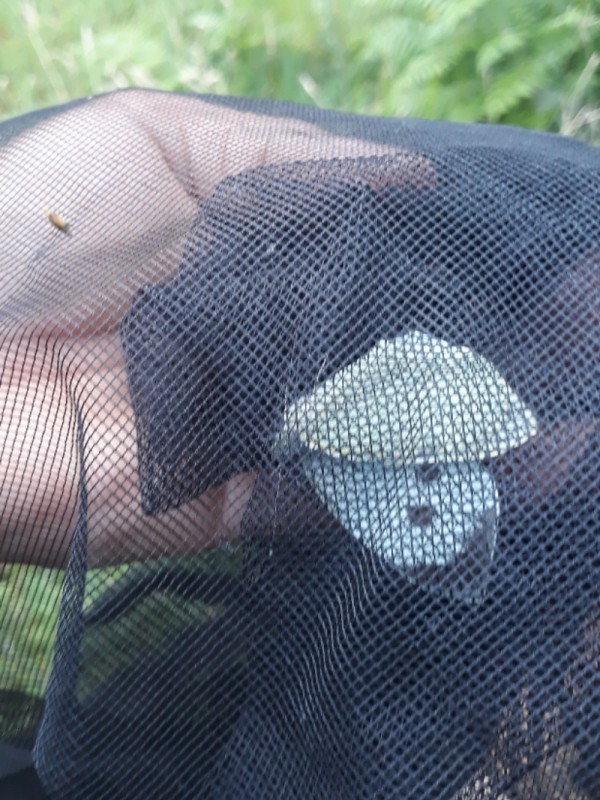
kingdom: Animalia
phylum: Arthropoda
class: Insecta
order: Lepidoptera
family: Pieridae
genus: Pieris
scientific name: Pieris brassicae
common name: Large white
